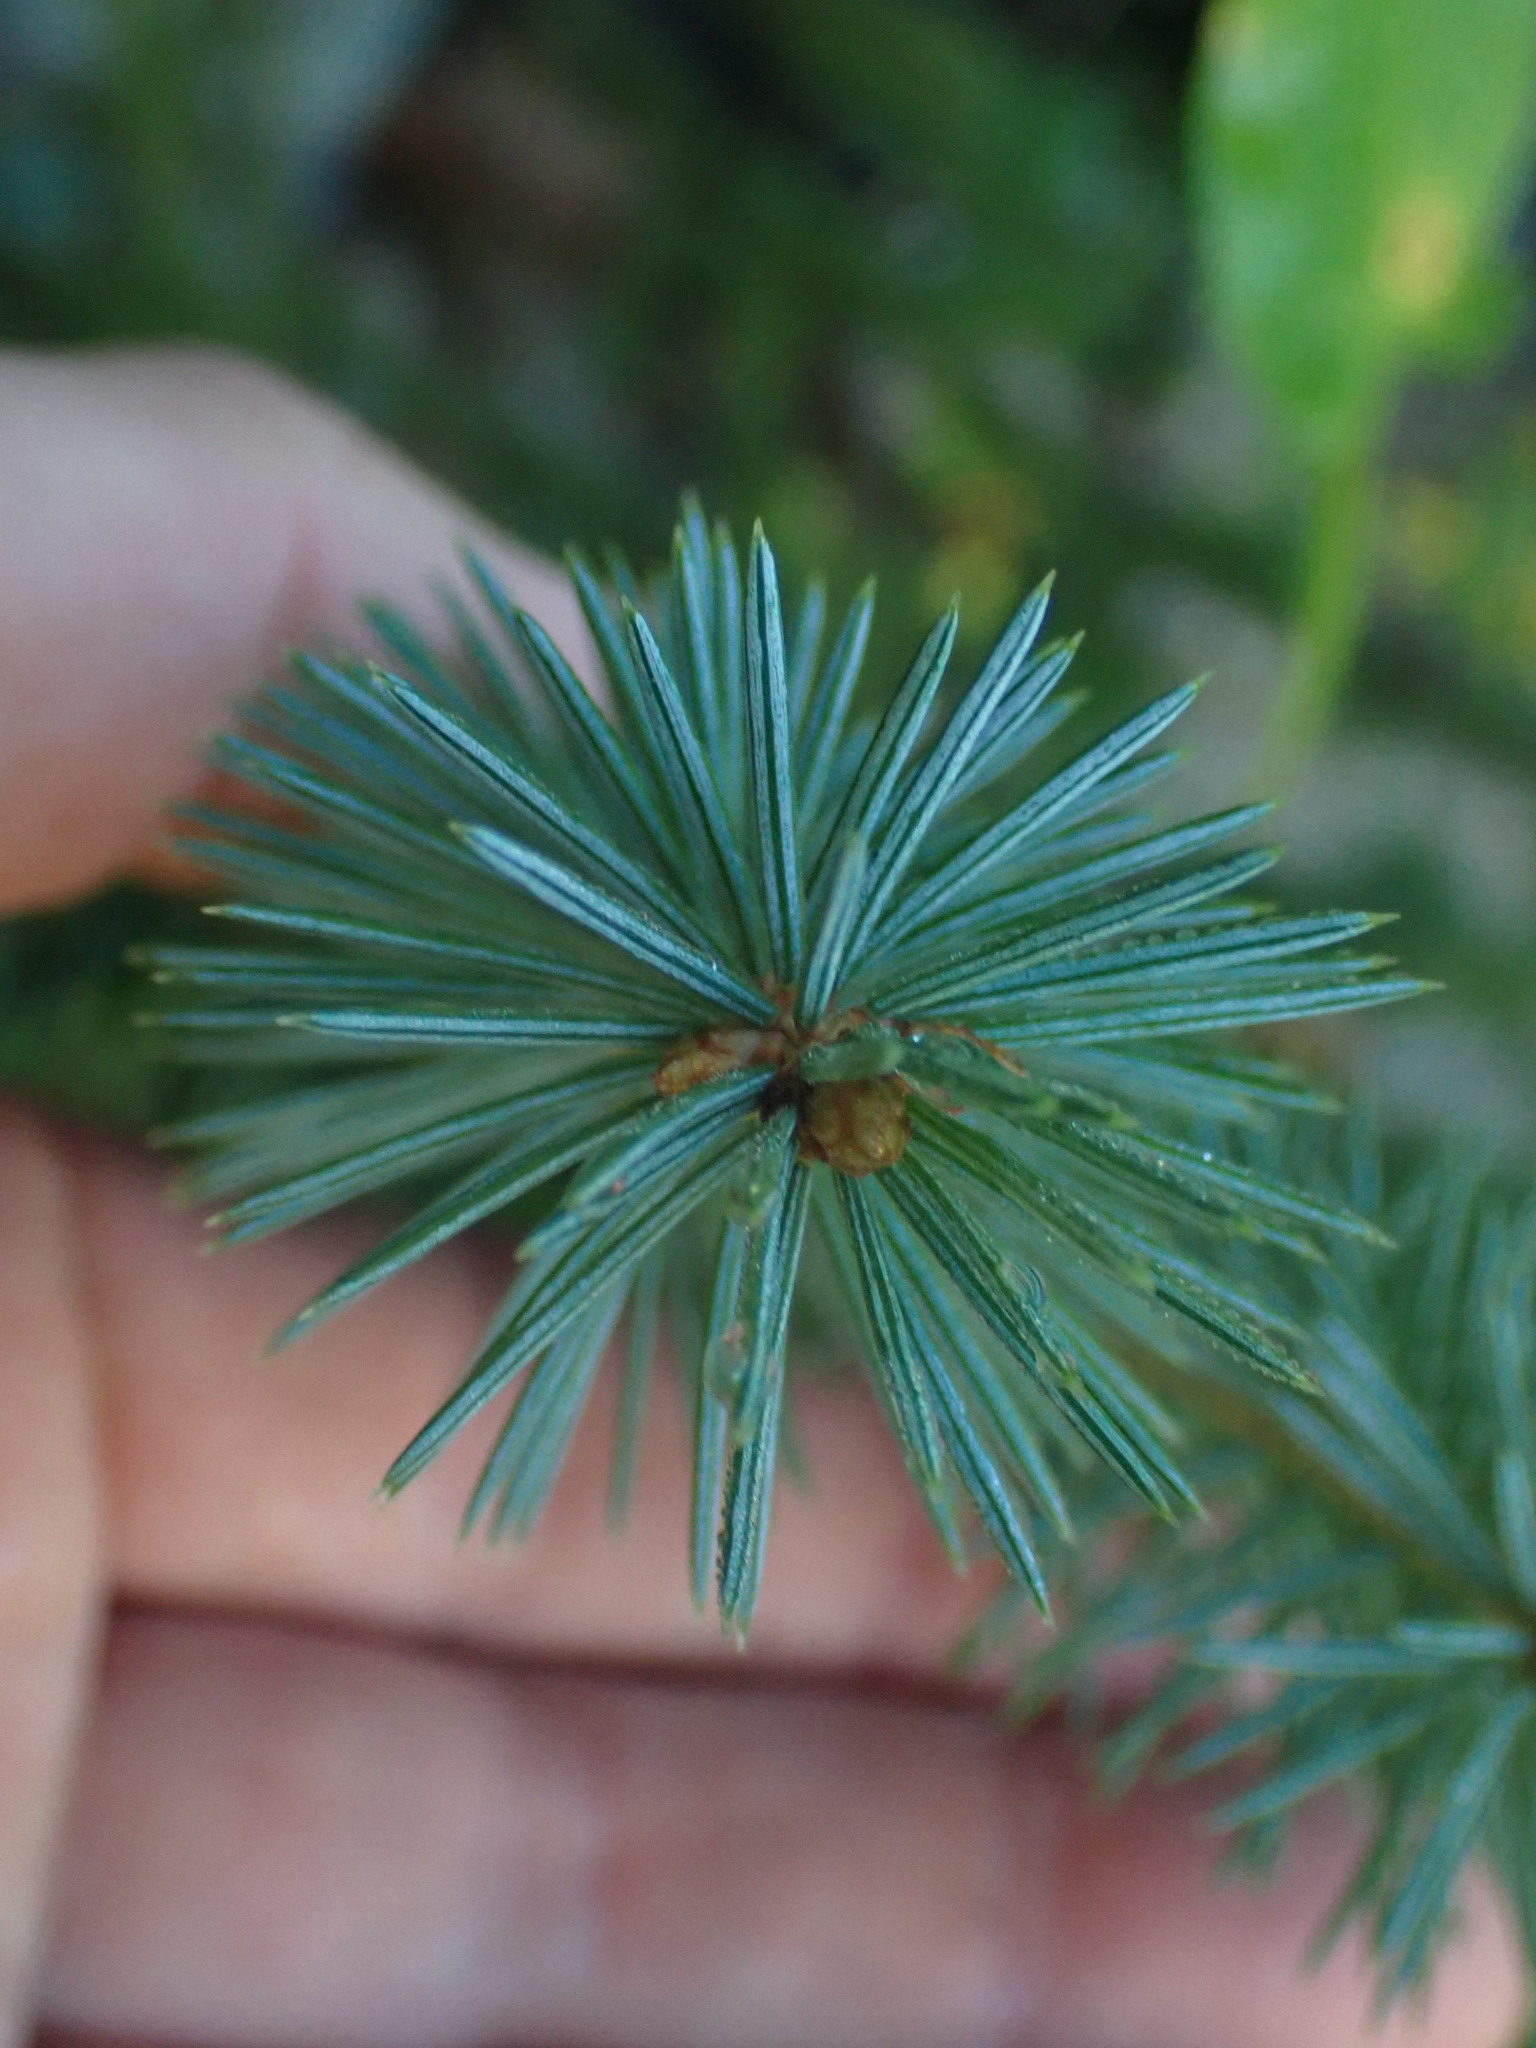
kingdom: Plantae
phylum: Tracheophyta
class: Pinopsida
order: Pinales
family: Pinaceae
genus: Picea
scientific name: Picea sitchensis
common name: Sitka spruce
